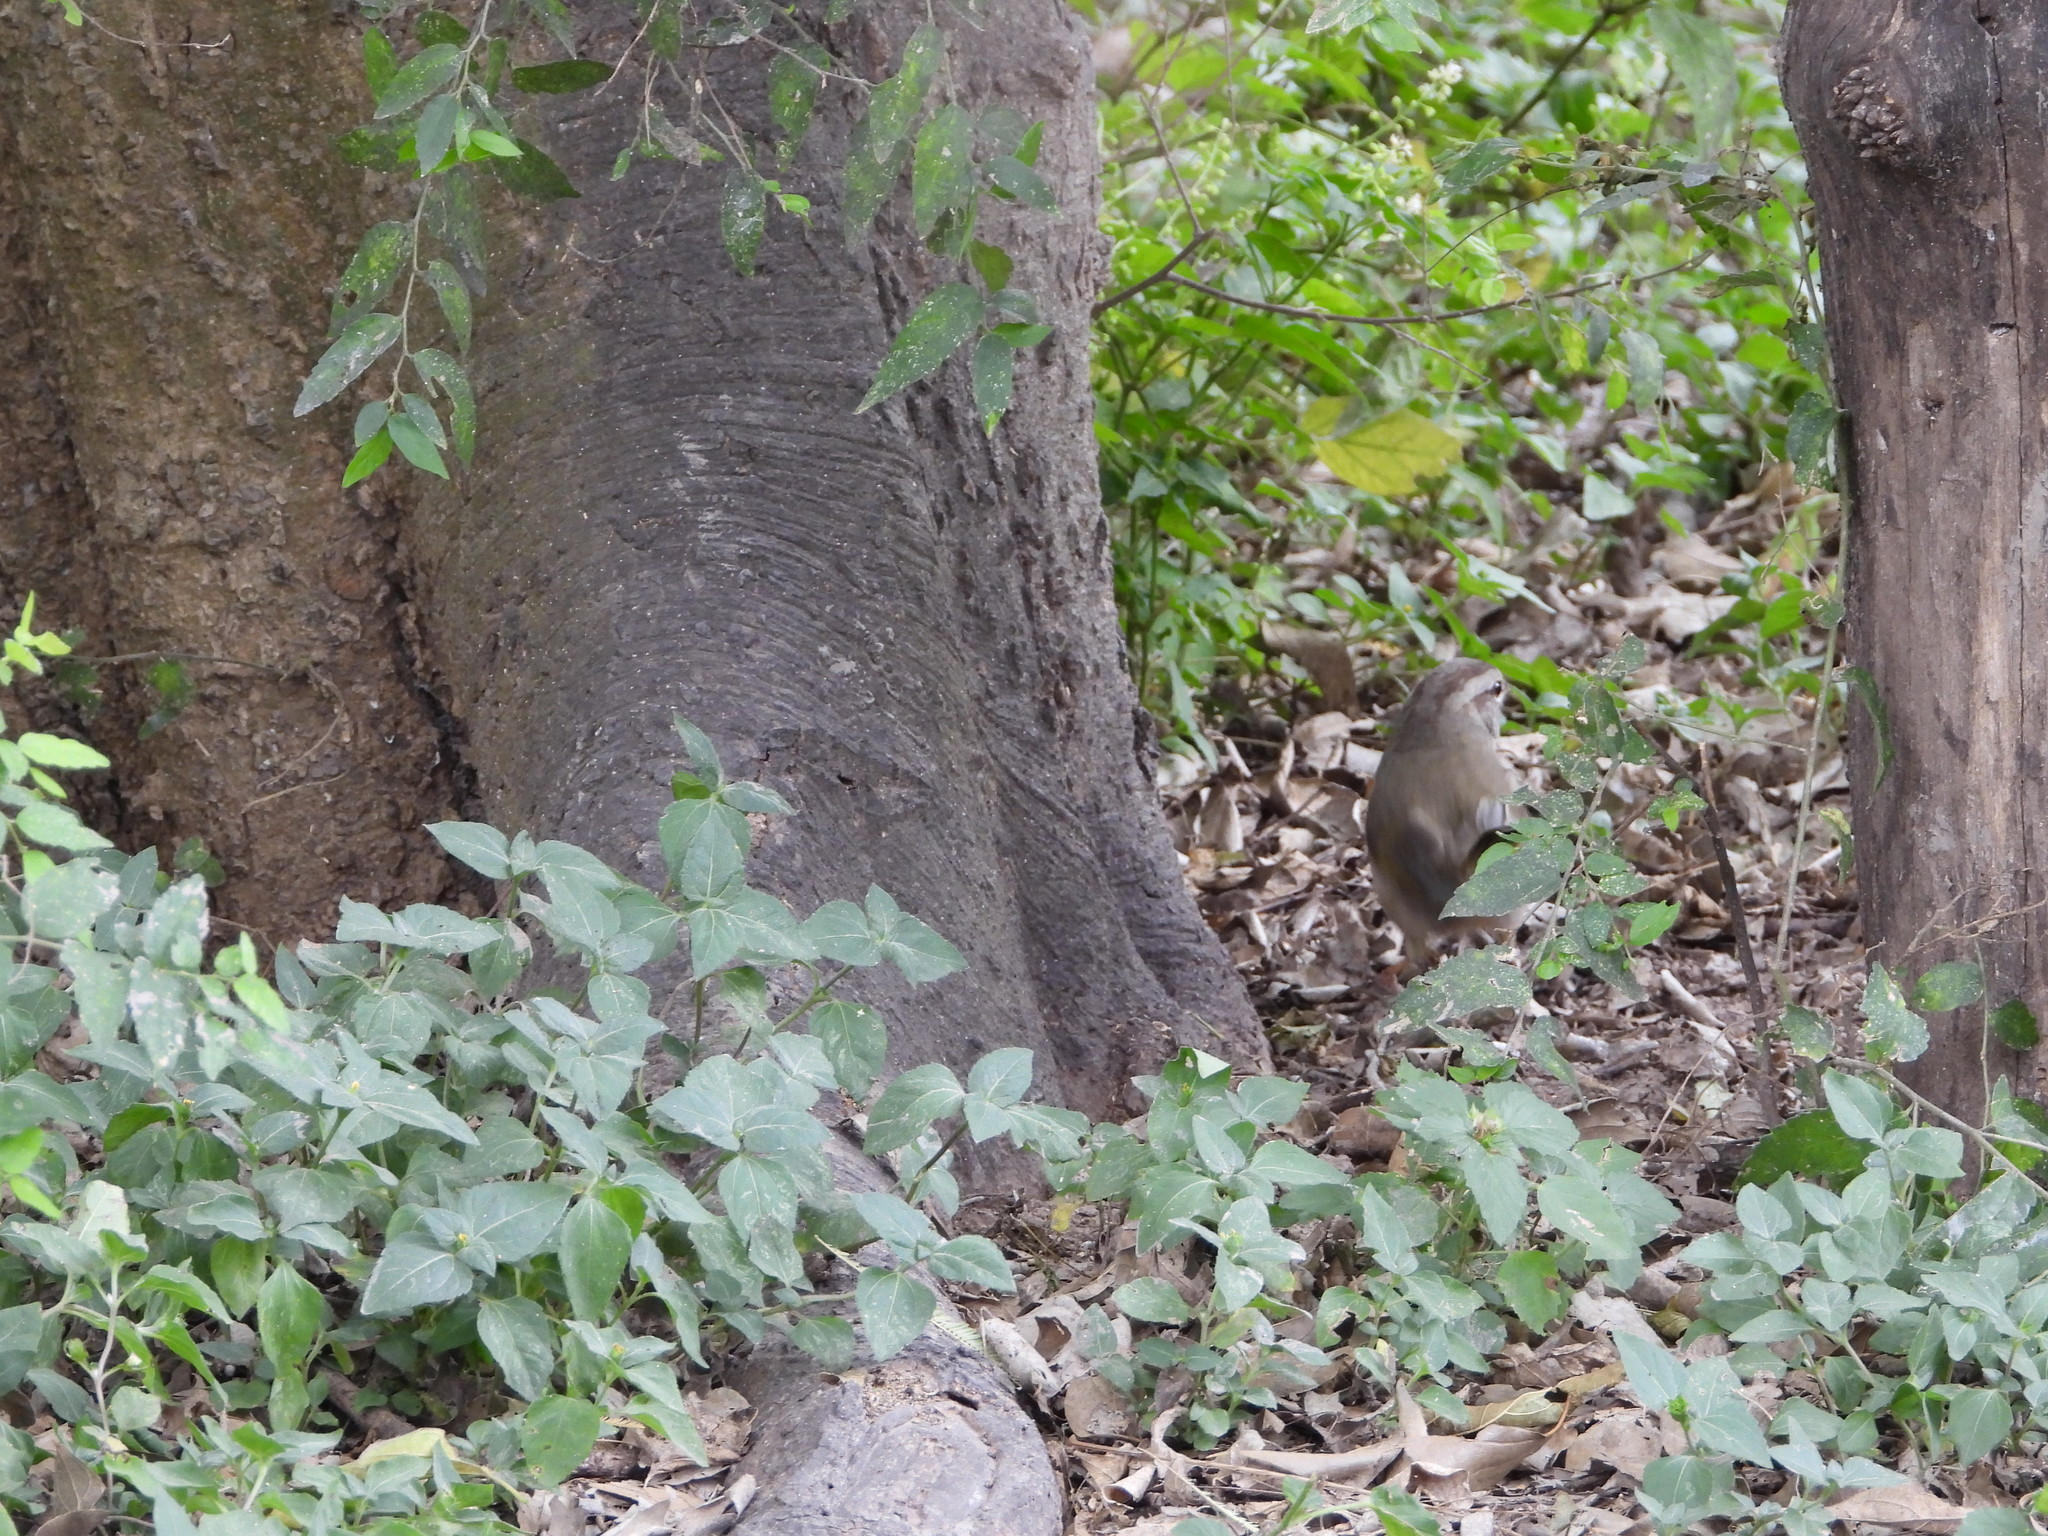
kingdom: Animalia
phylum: Chordata
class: Aves
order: Passeriformes
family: Passerellidae
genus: Arremonops
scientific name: Arremonops rufivirgatus
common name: Olive sparrow
